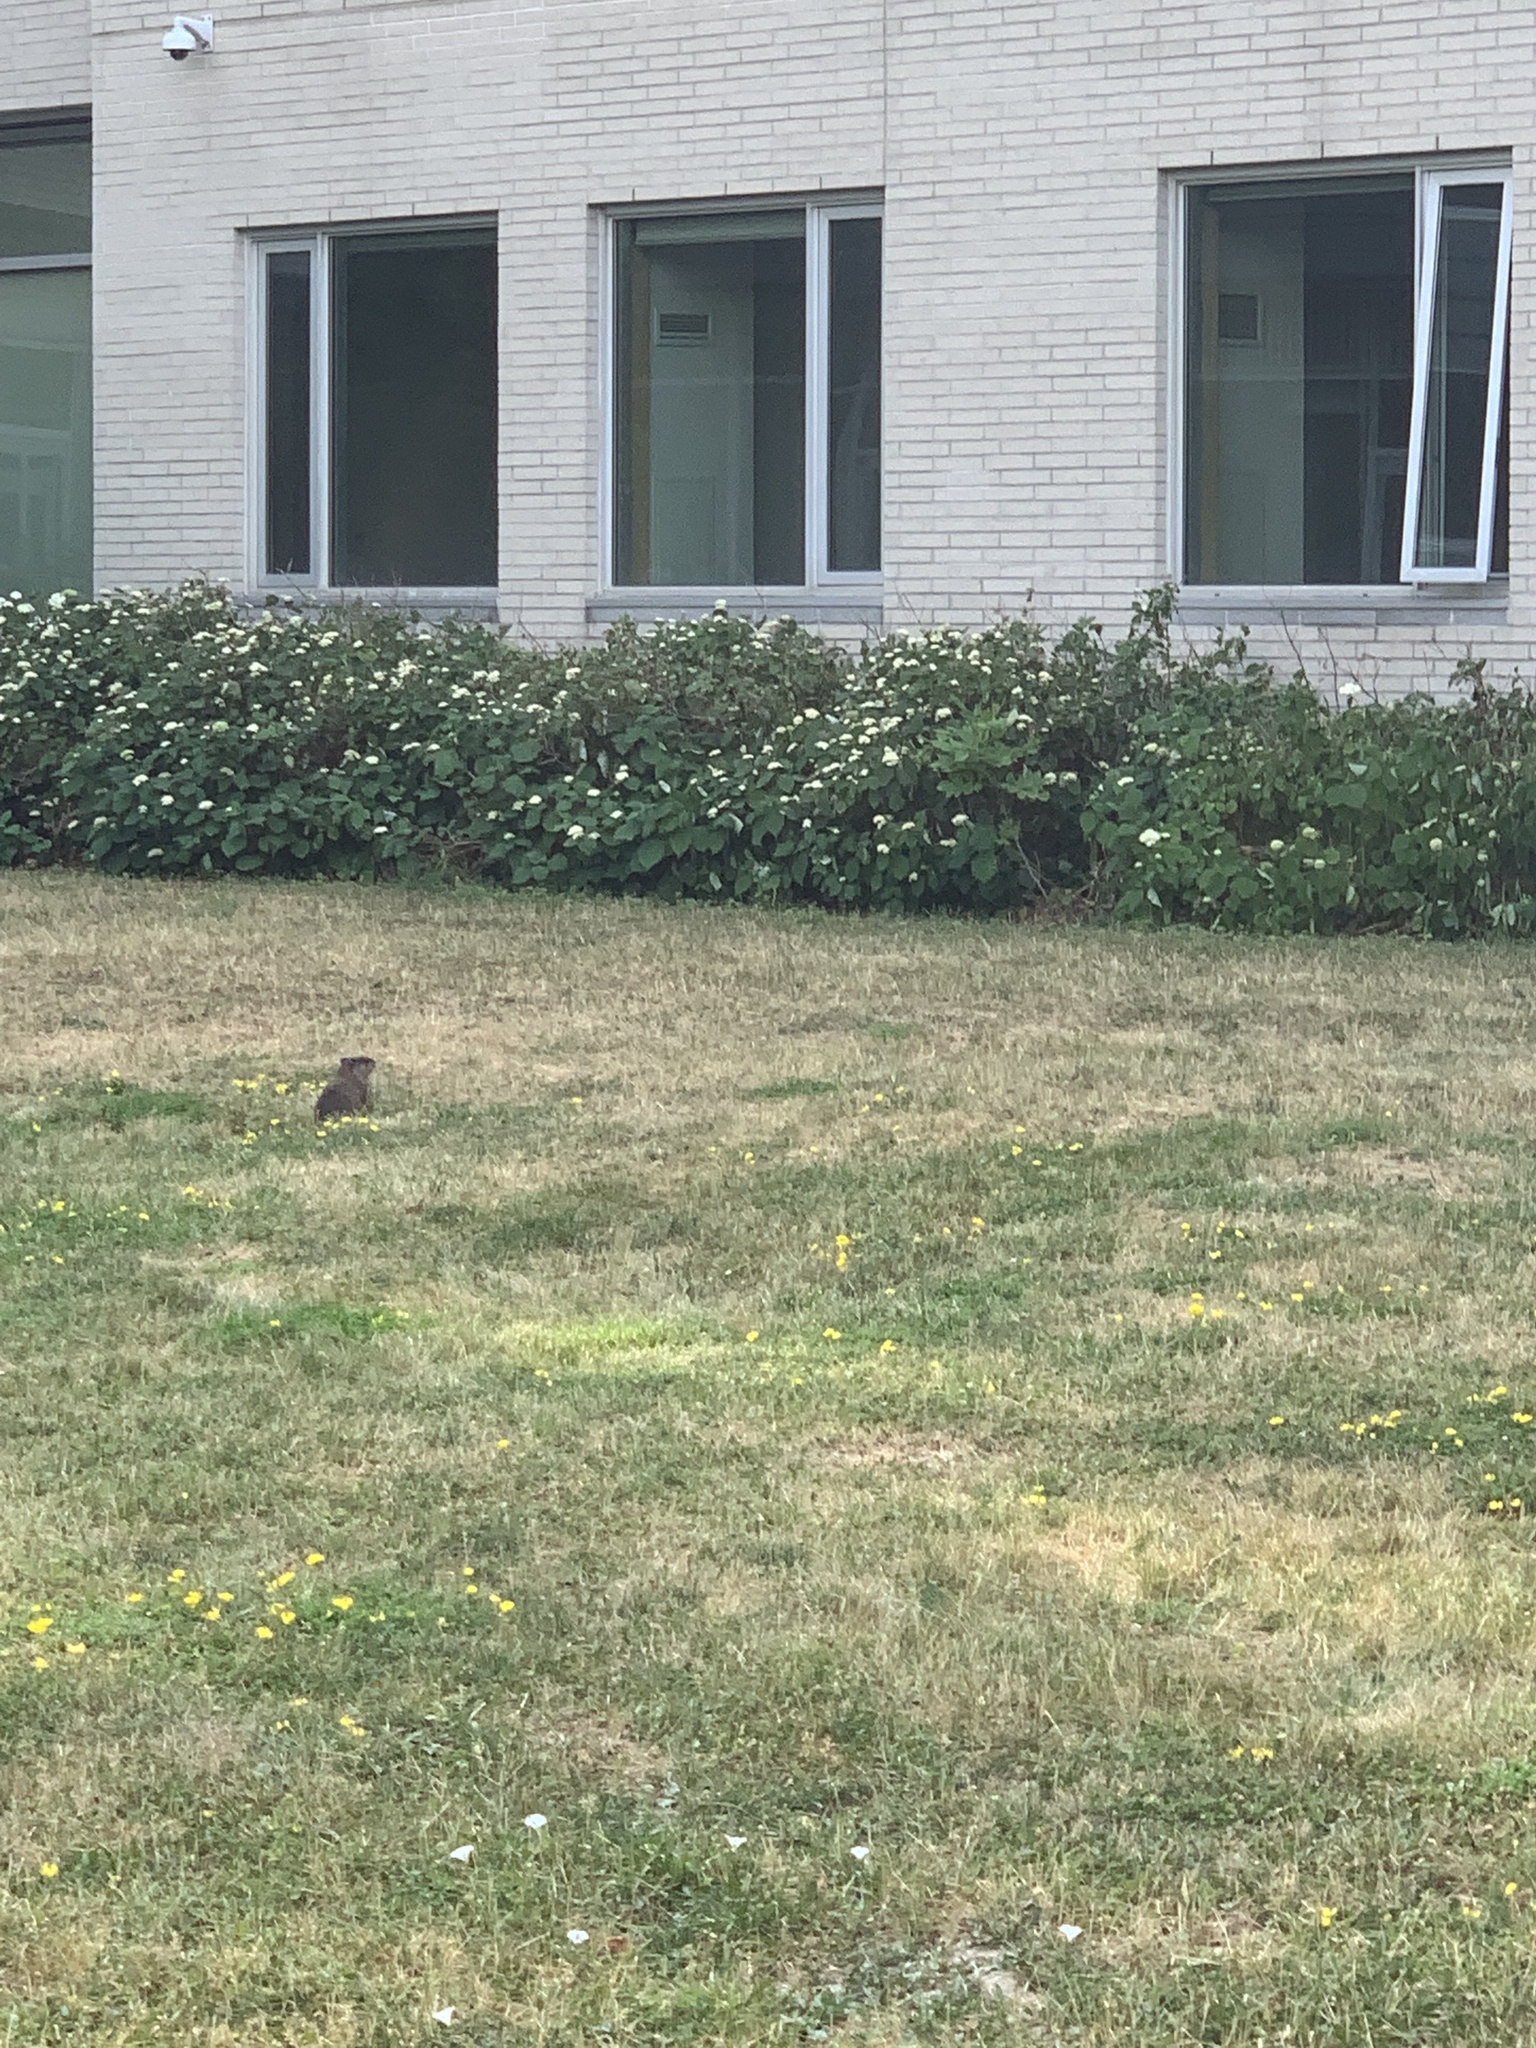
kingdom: Animalia
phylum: Chordata
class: Mammalia
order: Rodentia
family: Sciuridae
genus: Marmota
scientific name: Marmota monax
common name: Groundhog
